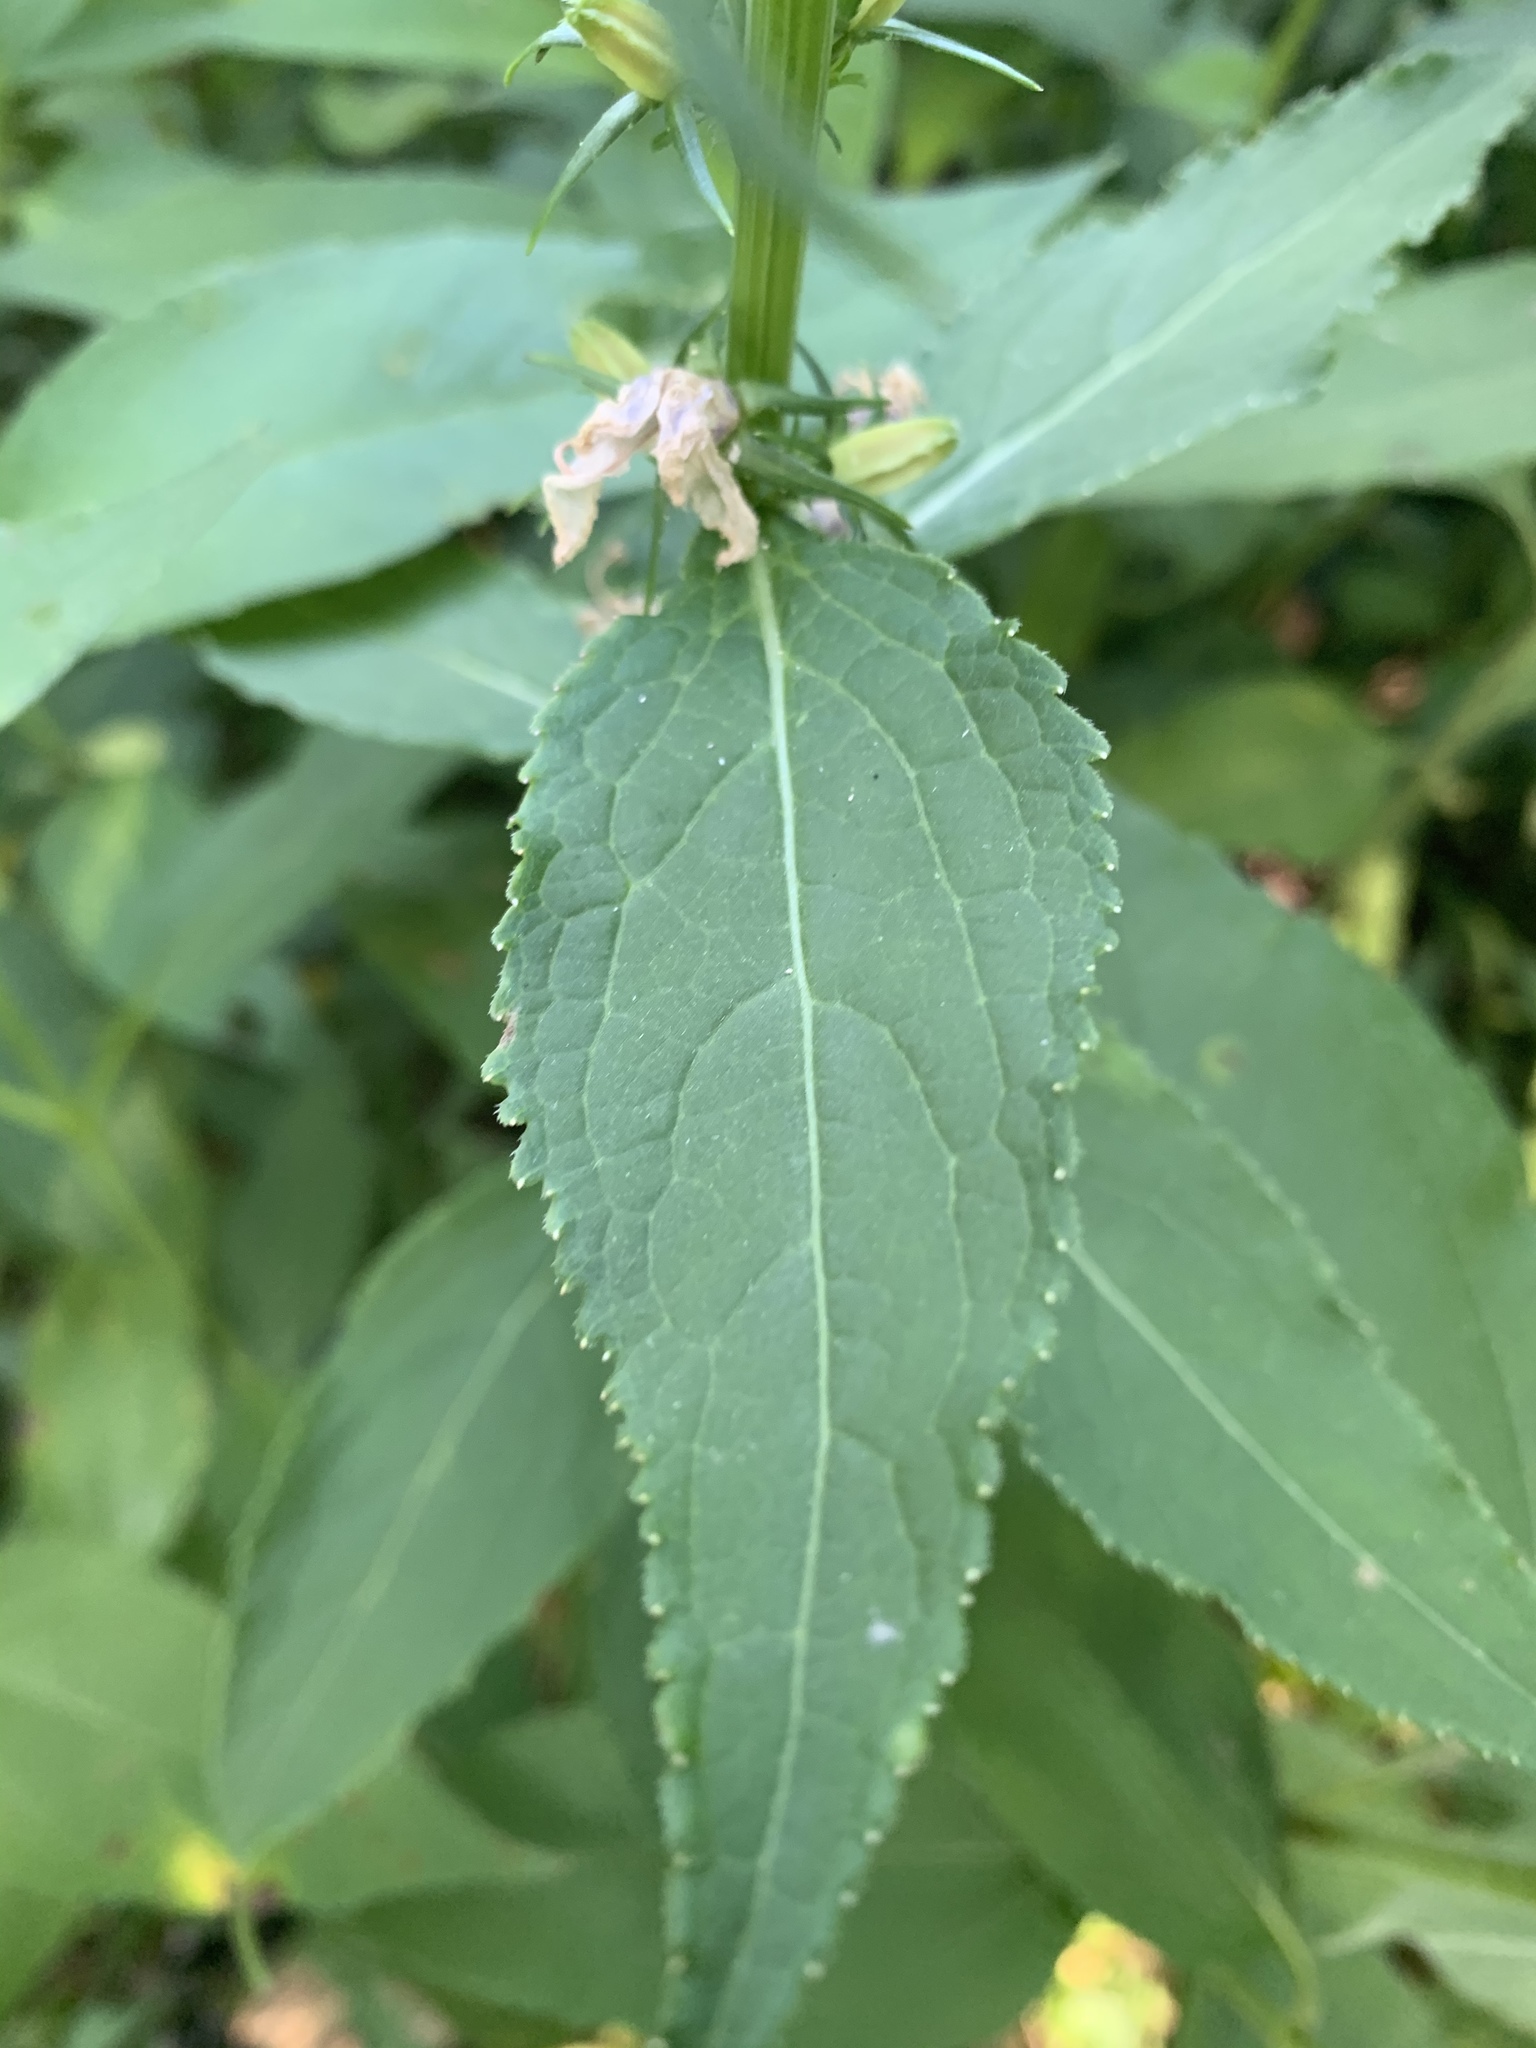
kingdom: Plantae
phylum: Tracheophyta
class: Magnoliopsida
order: Asterales
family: Campanulaceae
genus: Campanulastrum
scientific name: Campanulastrum americanum
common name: American bellflower
